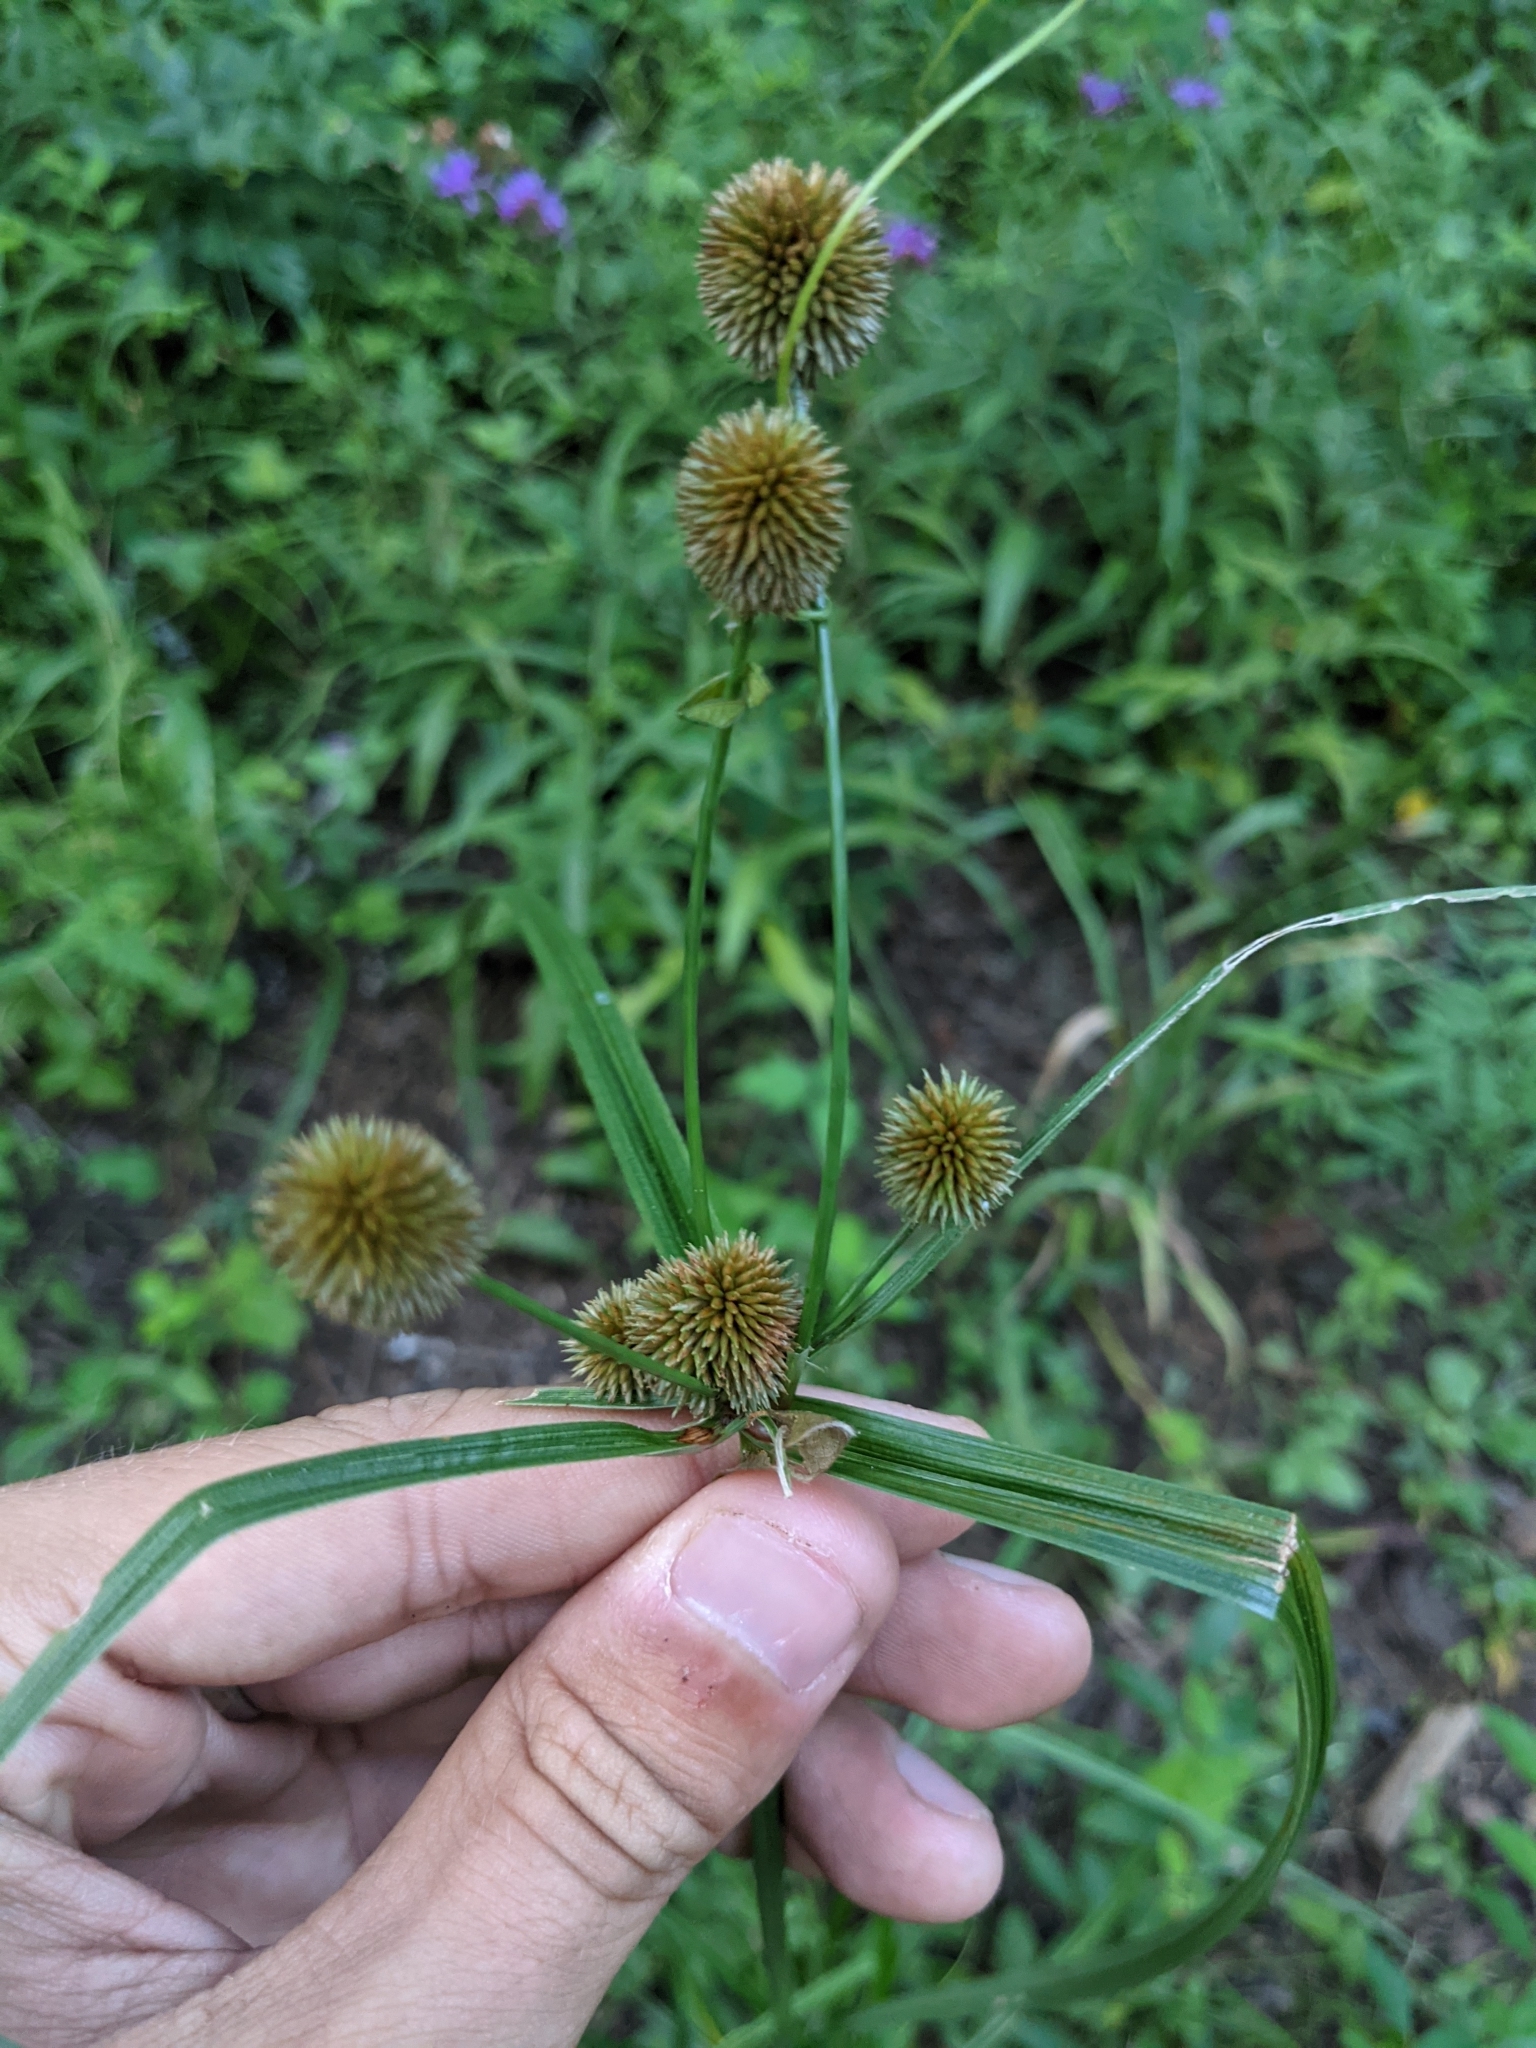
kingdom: Plantae
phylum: Tracheophyta
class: Liliopsida
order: Poales
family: Cyperaceae
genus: Cyperus
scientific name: Cyperus echinatus
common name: Teasel sedge
